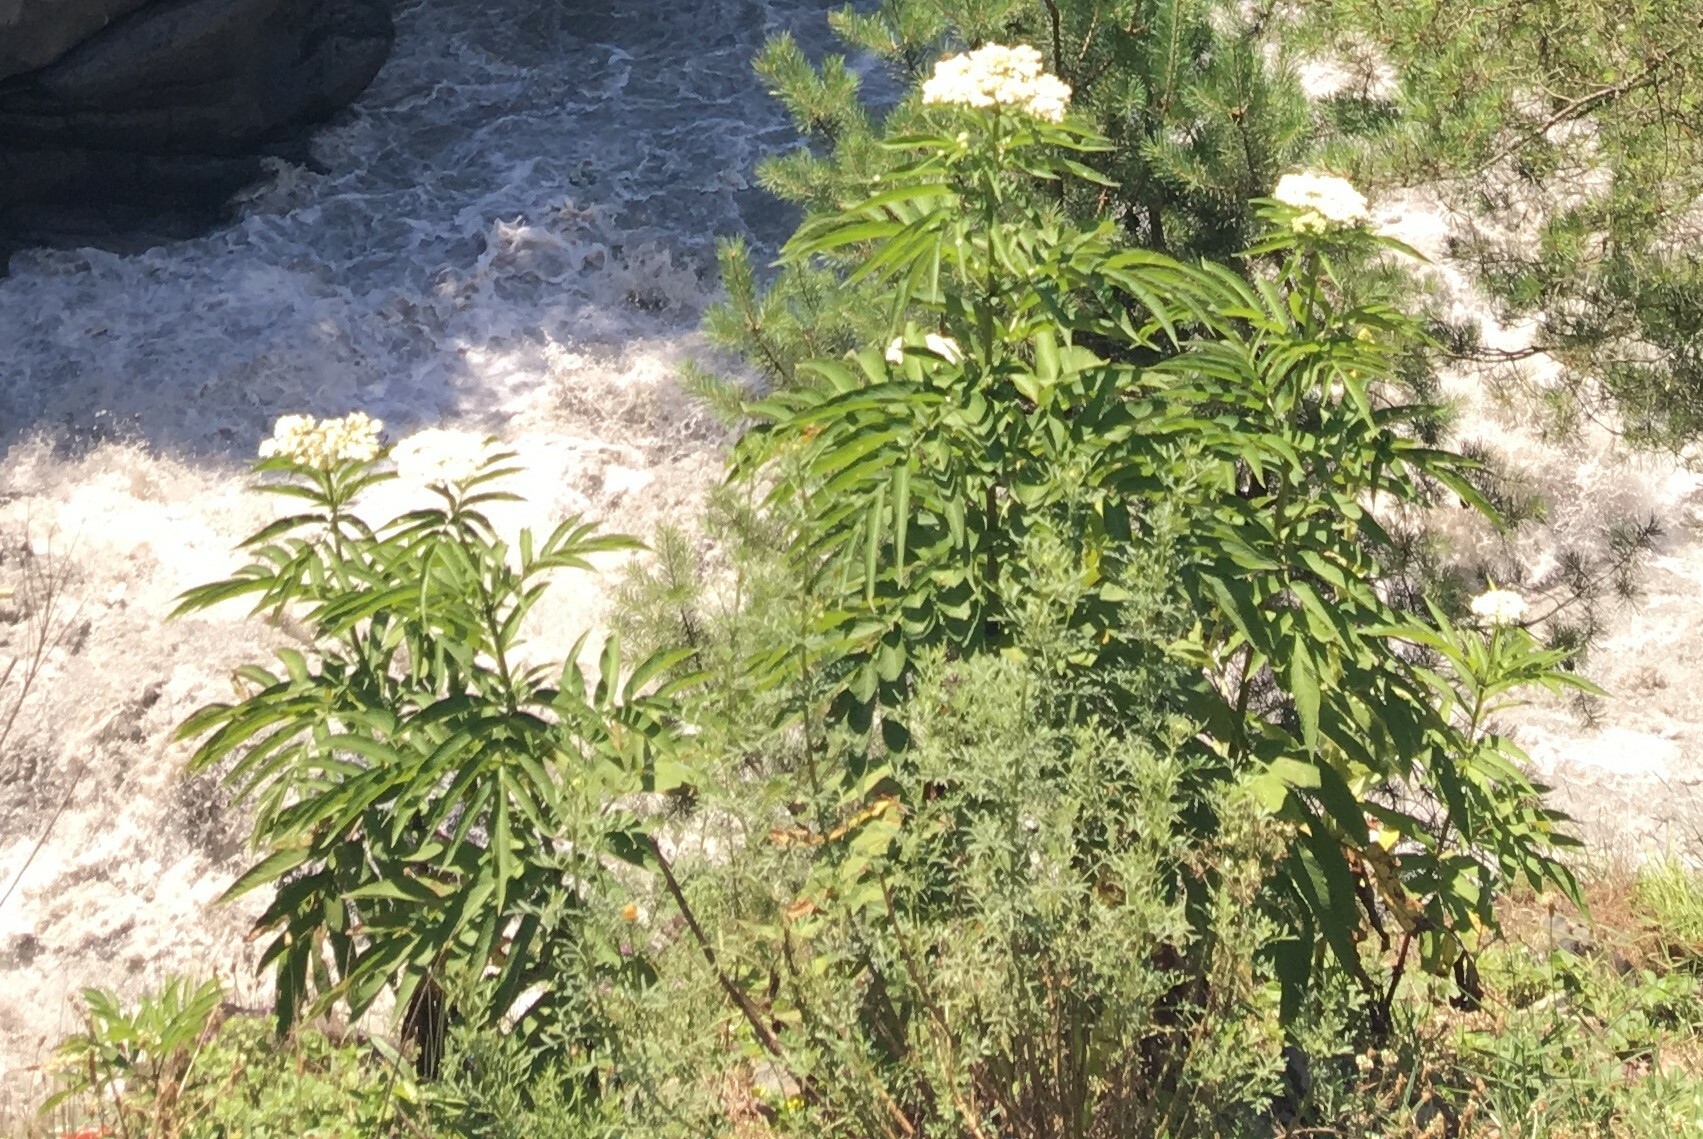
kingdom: Plantae
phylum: Tracheophyta
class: Magnoliopsida
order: Dipsacales
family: Viburnaceae
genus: Sambucus
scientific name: Sambucus ebulus
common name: Dwarf elder
